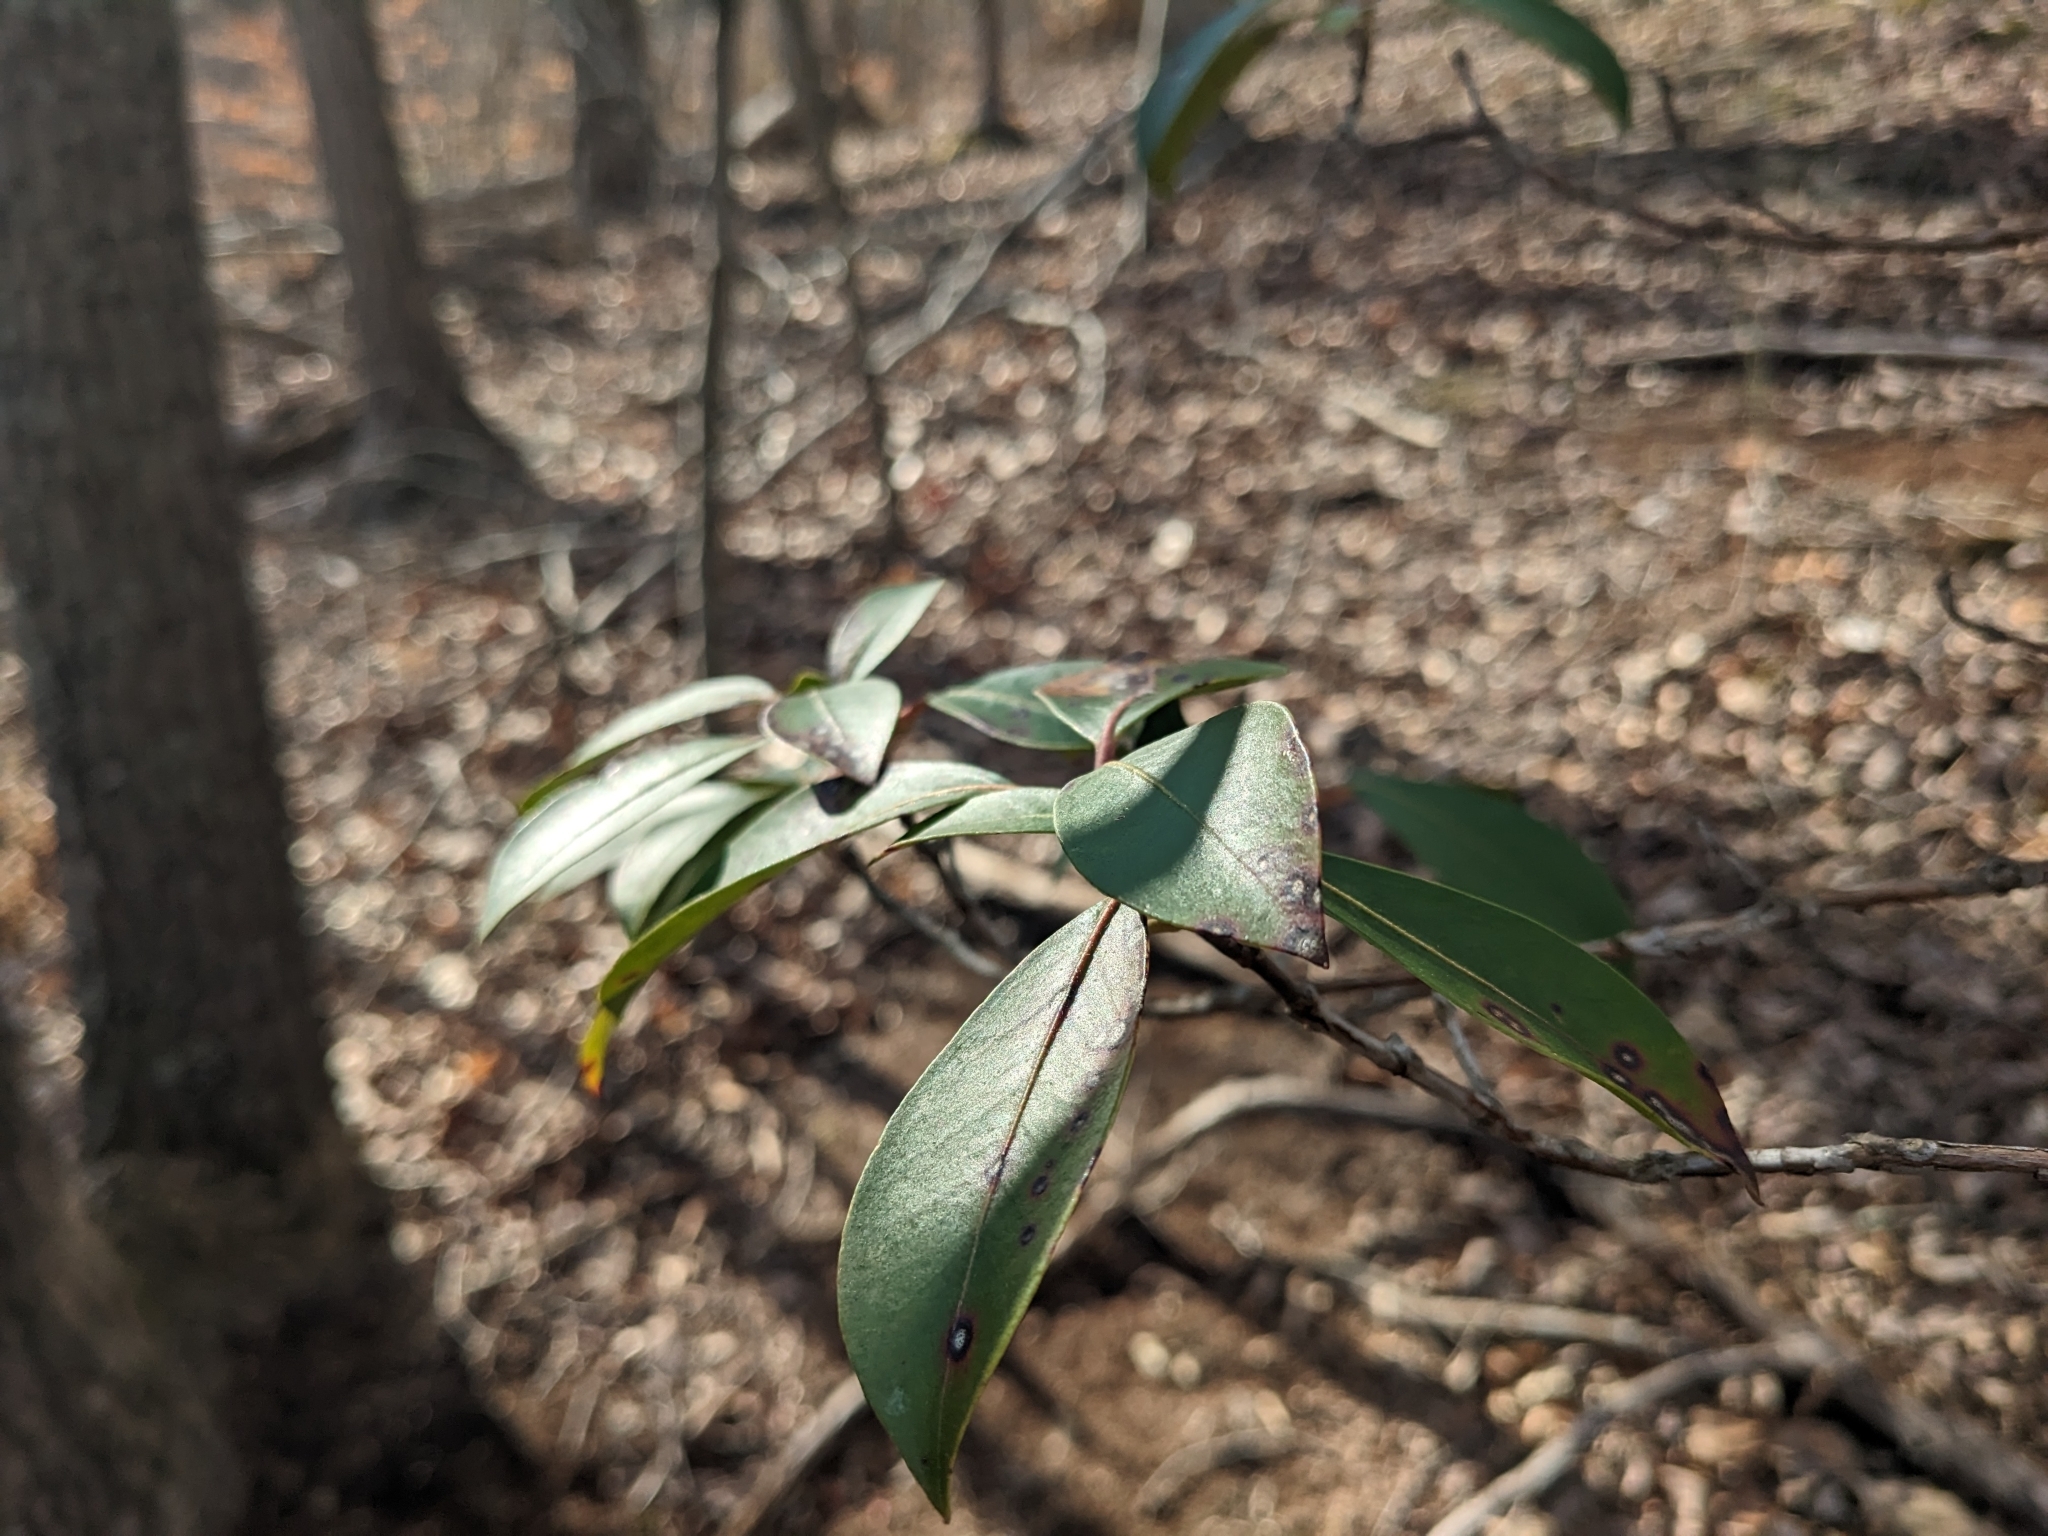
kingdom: Plantae
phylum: Tracheophyta
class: Magnoliopsida
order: Ericales
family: Ericaceae
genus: Kalmia
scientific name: Kalmia latifolia
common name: Mountain-laurel
